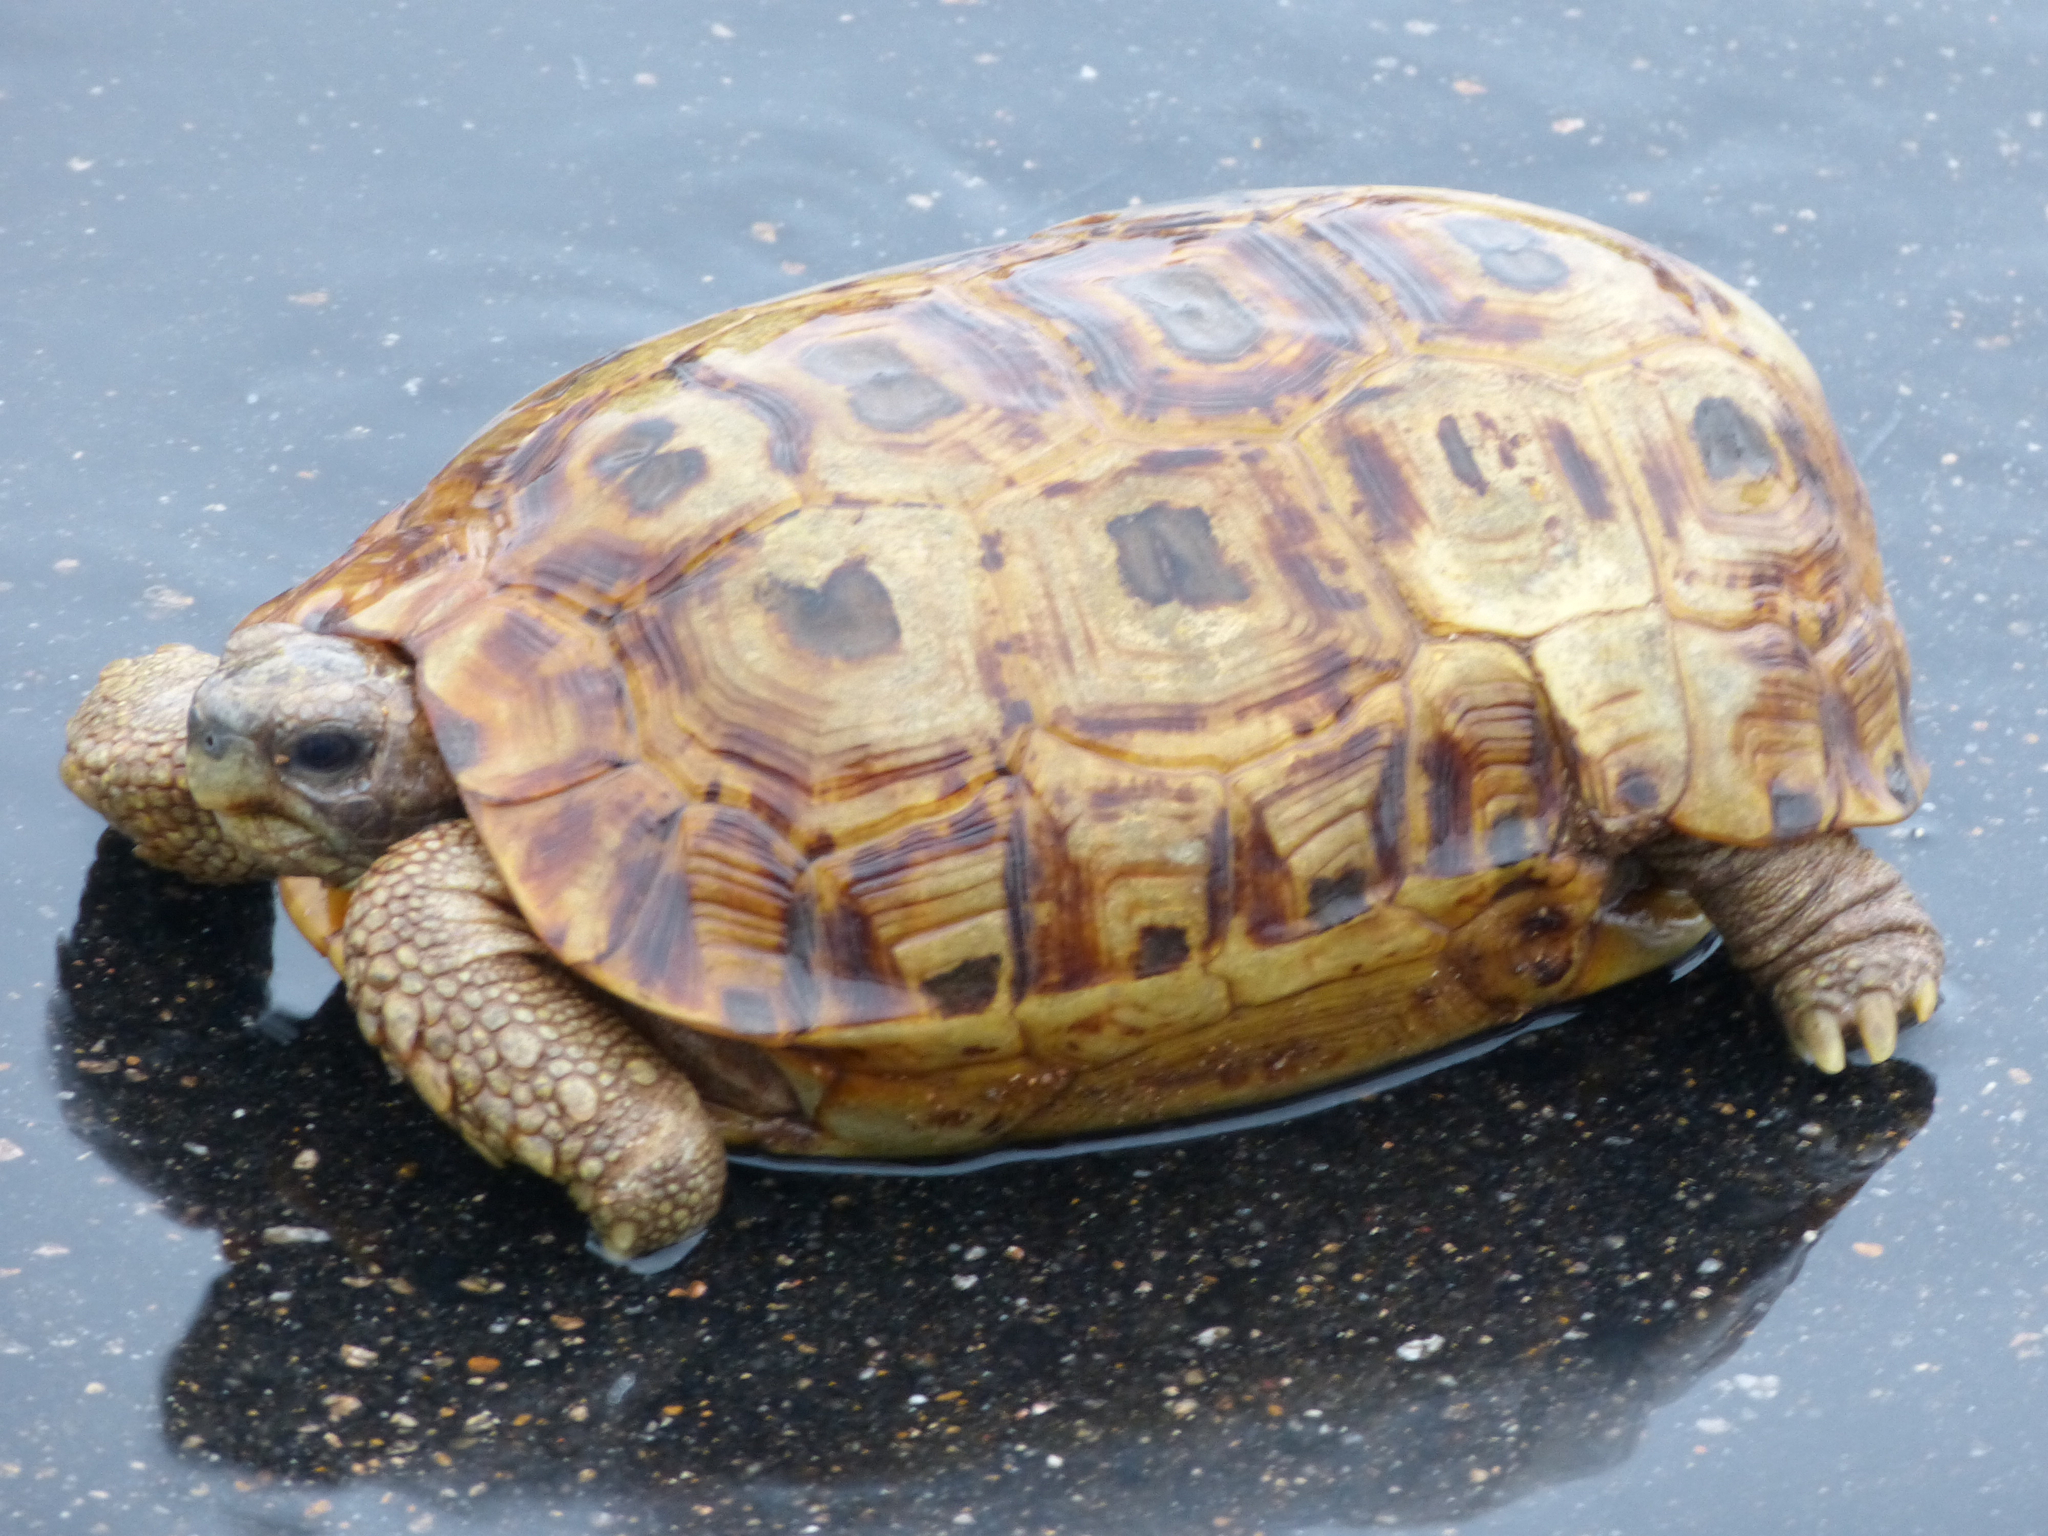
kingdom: Animalia
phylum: Chordata
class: Testudines
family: Testudinidae
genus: Kinixys
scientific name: Kinixys spekii
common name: Speke's hingeback tortoise
